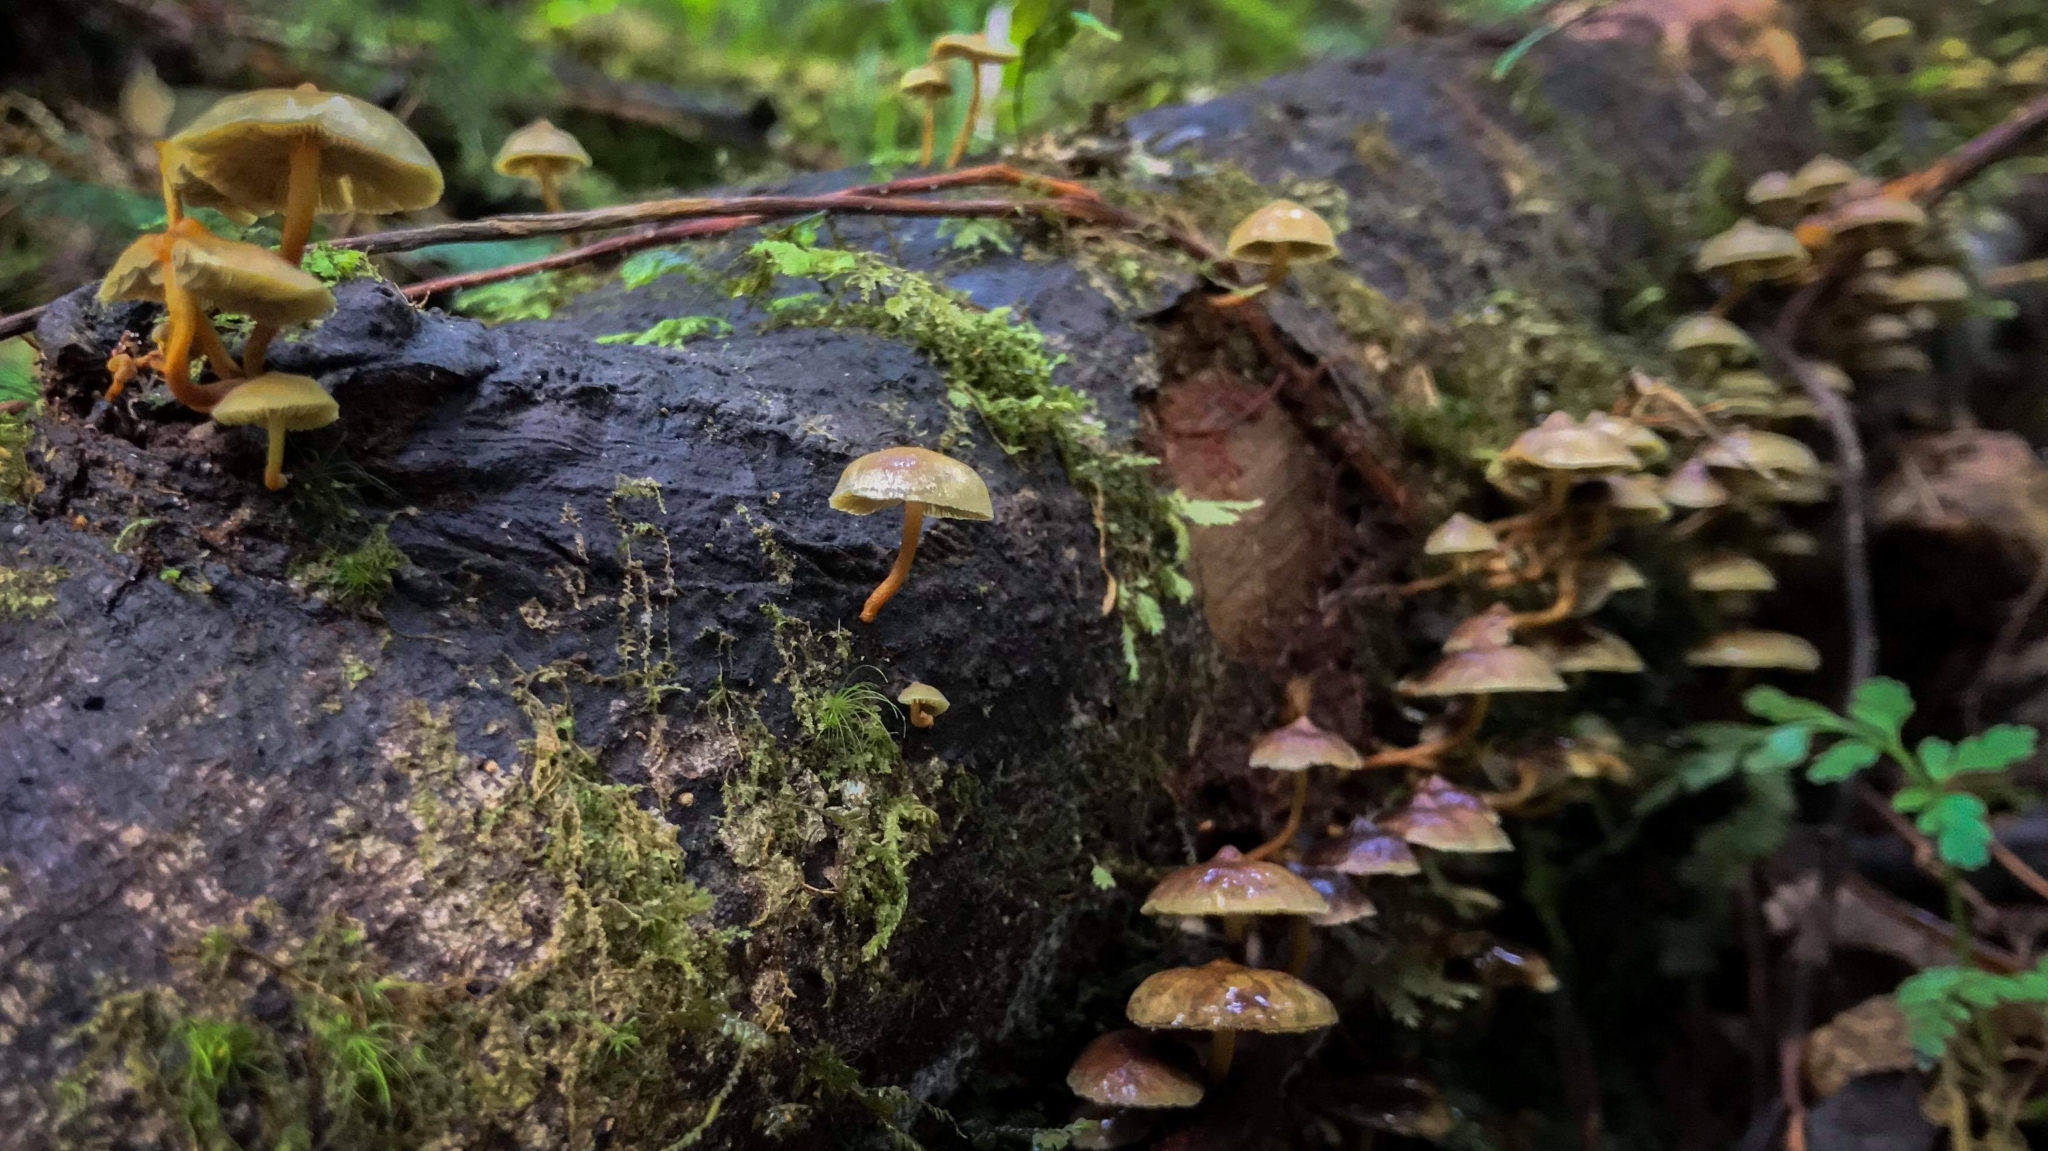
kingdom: Fungi
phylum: Basidiomycota
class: Agaricomycetes
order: Agaricales
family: Strophariaceae
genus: Hypholoma
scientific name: Hypholoma acutum
